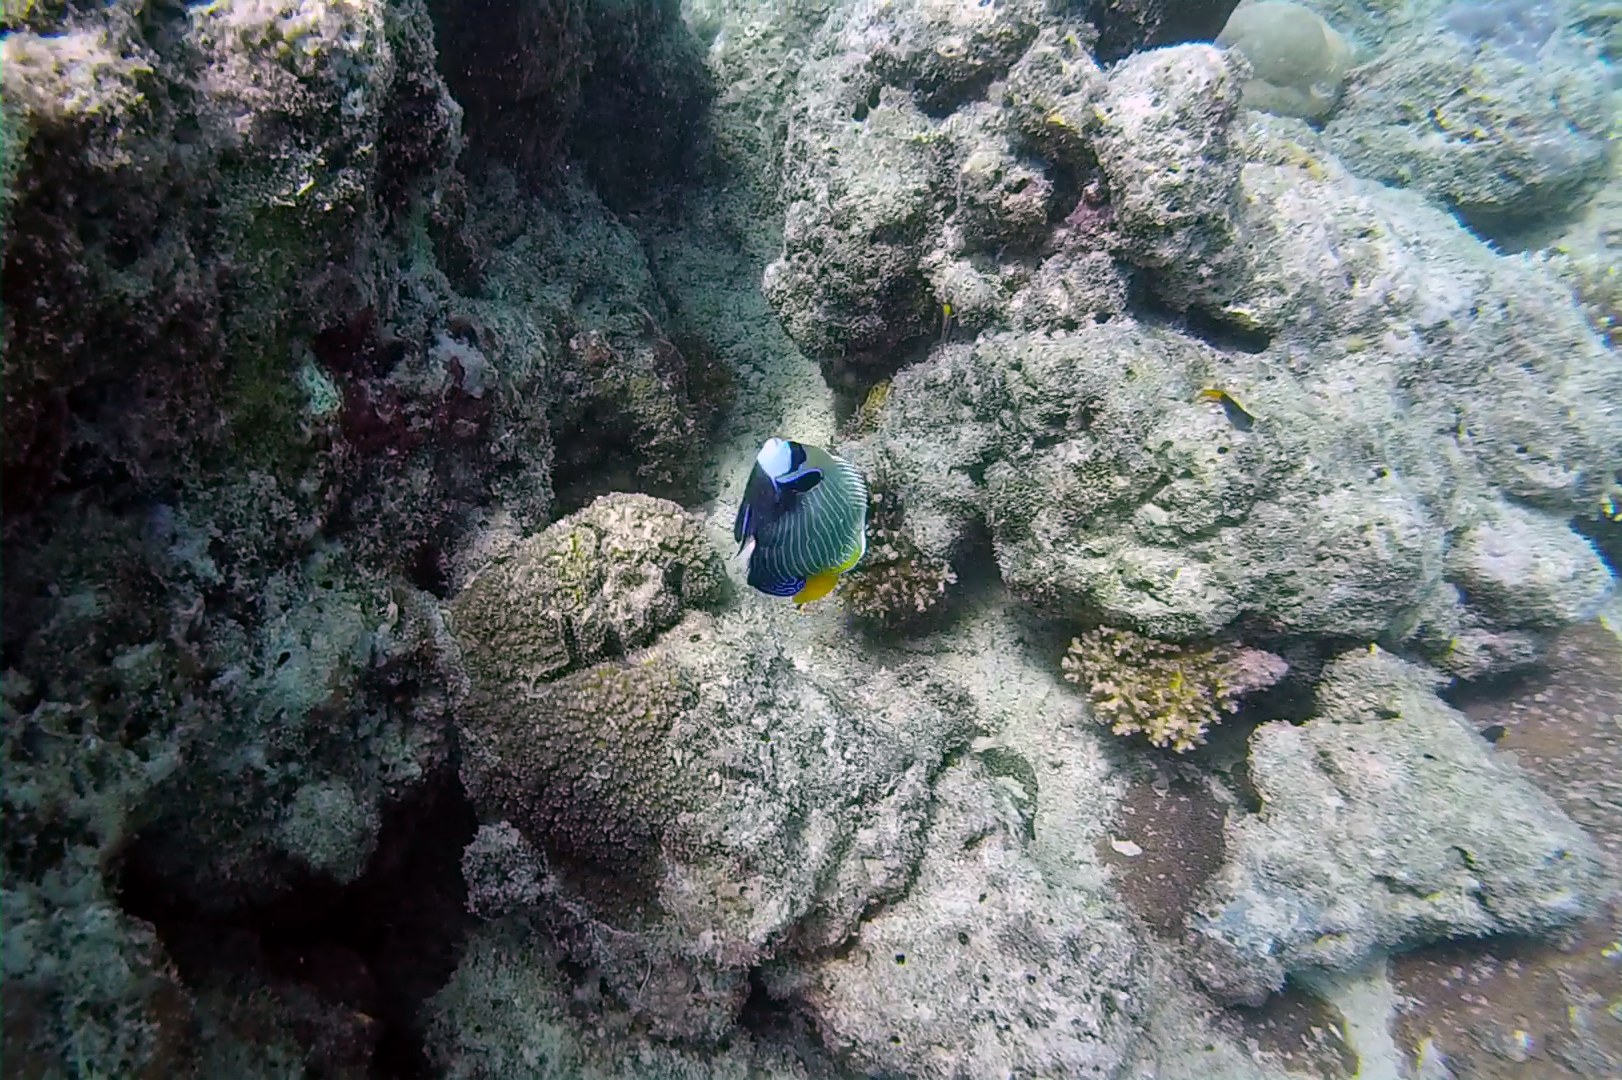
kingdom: Animalia
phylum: Chordata
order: Perciformes
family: Pomacanthidae
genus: Pomacanthus
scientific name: Pomacanthus imperator
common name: Emperor angelfish
